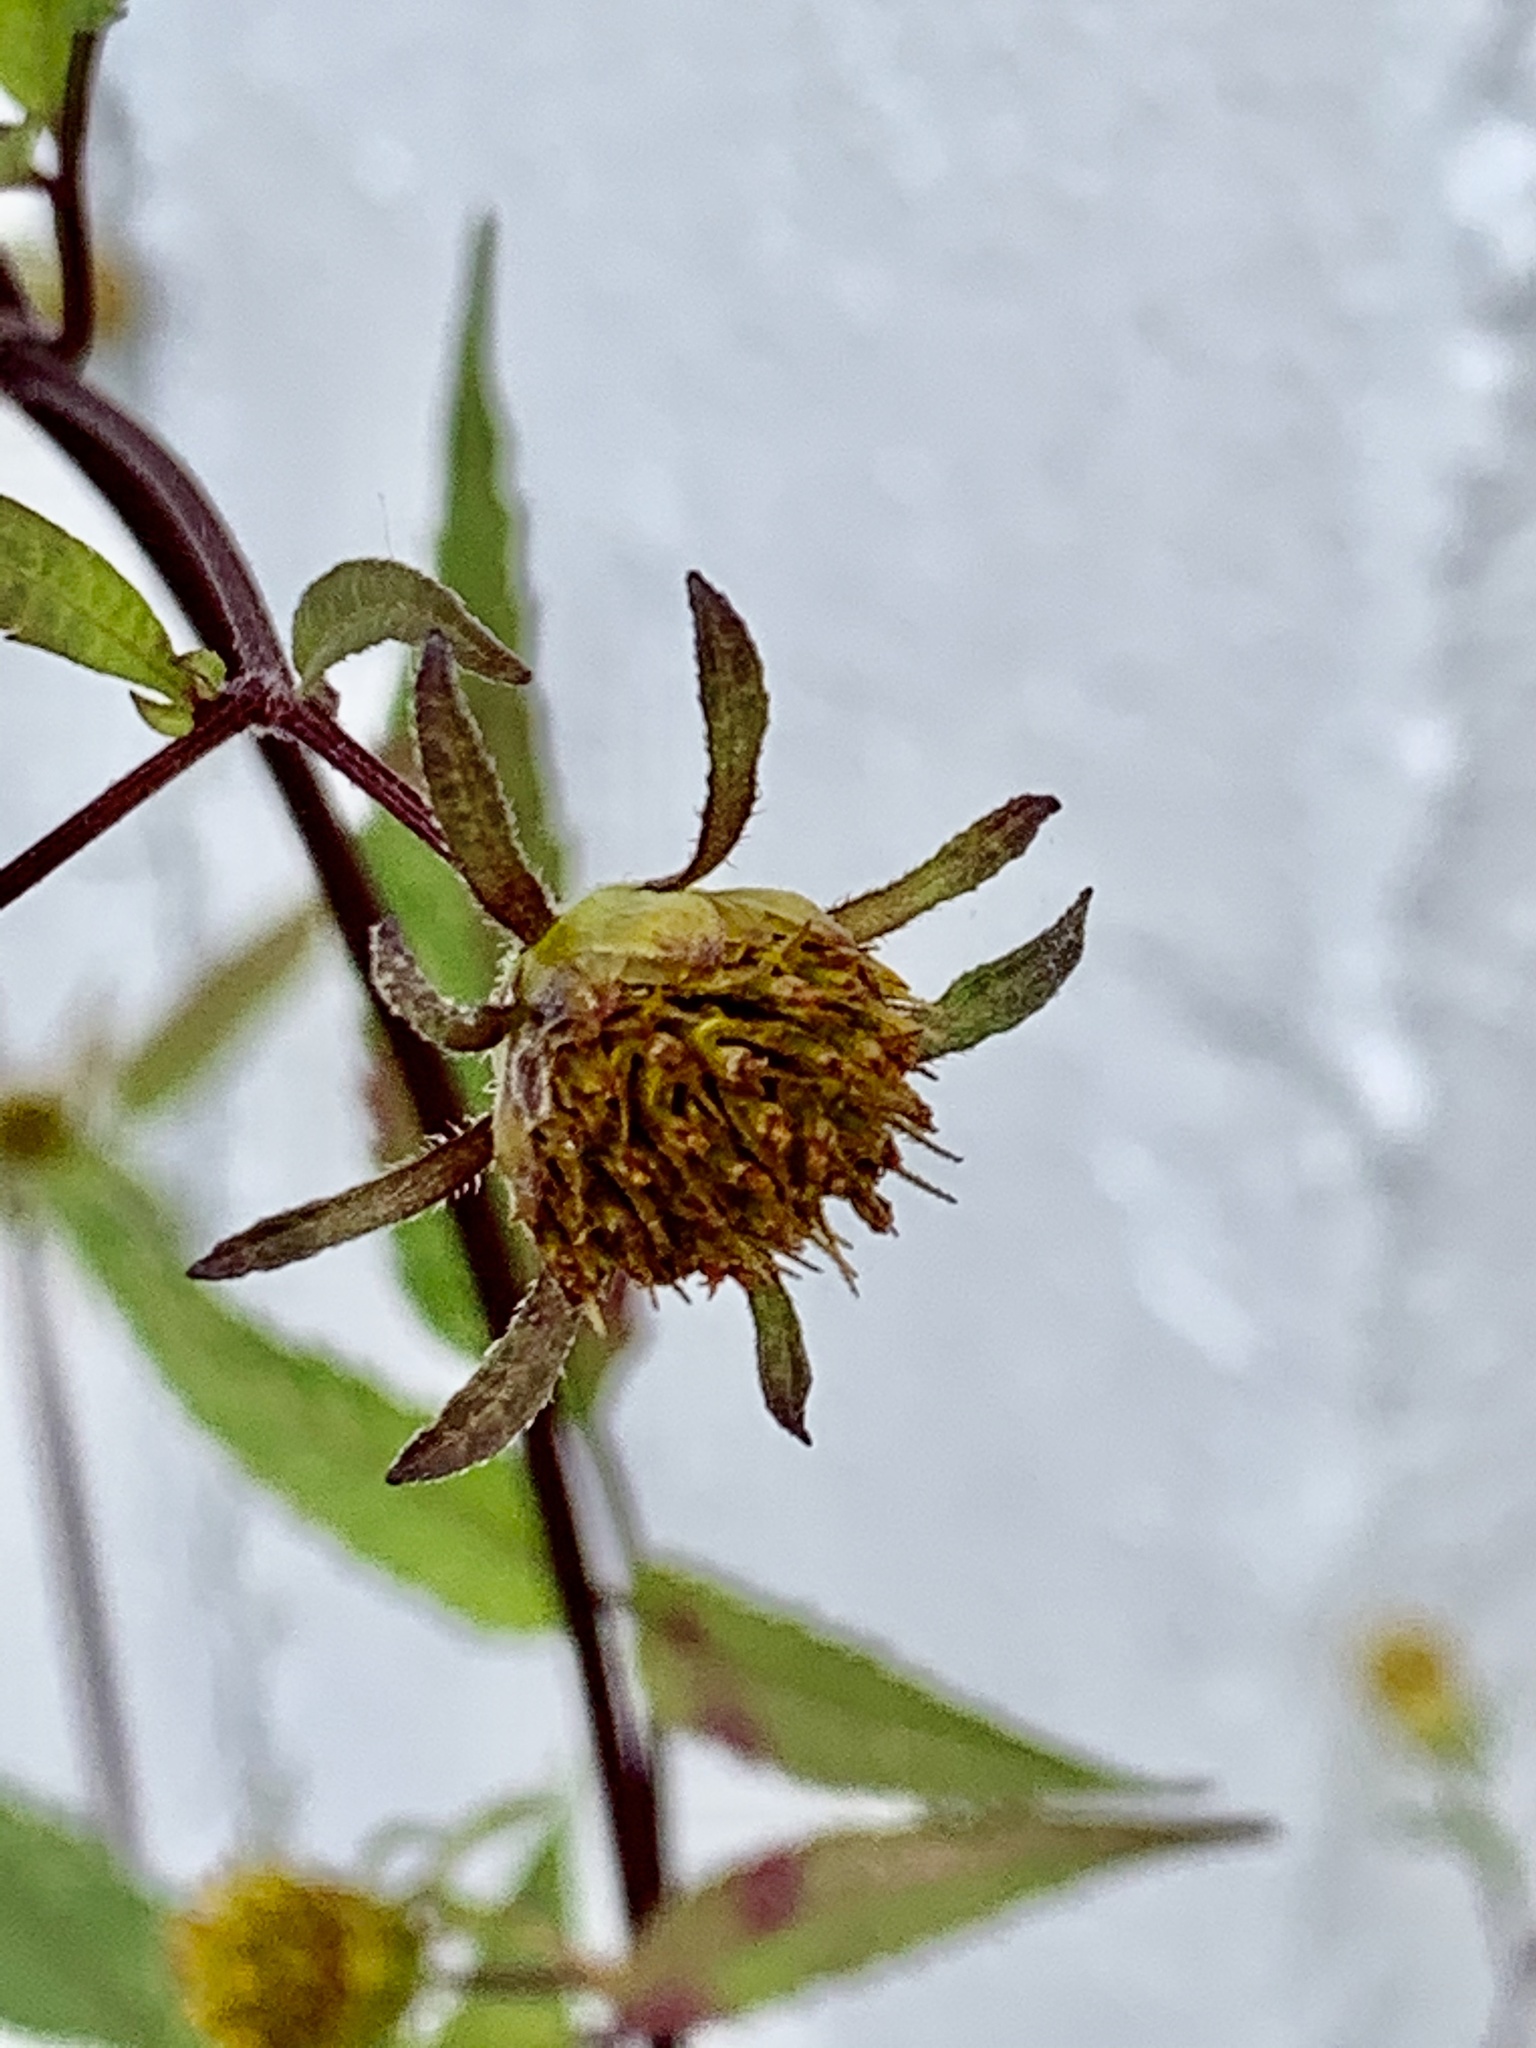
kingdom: Plantae
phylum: Tracheophyta
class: Magnoliopsida
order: Asterales
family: Asteraceae
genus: Bidens
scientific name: Bidens frondosa
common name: Beggarticks
